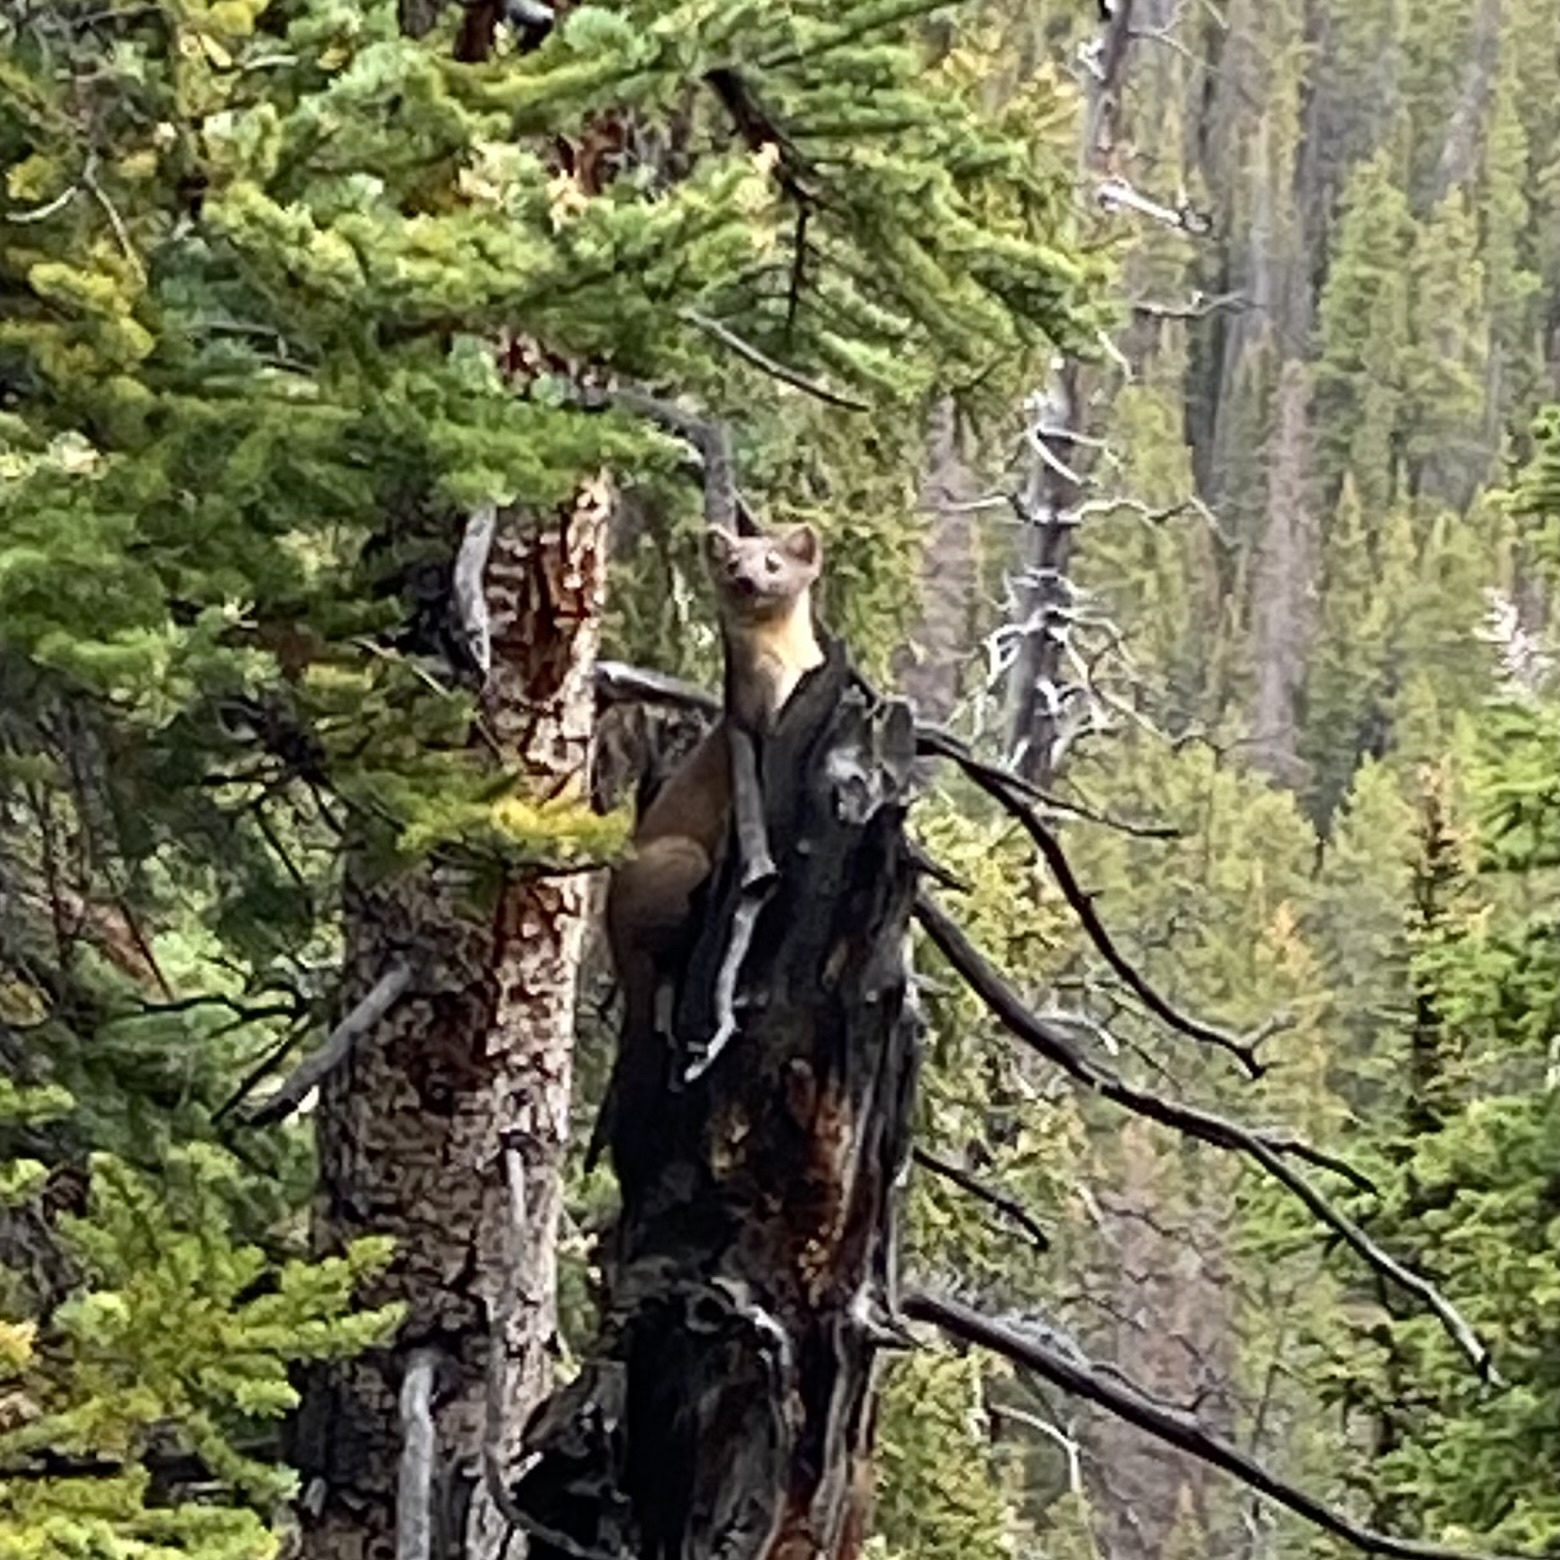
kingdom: Animalia
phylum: Chordata
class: Mammalia
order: Carnivora
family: Mustelidae
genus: Martes
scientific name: Martes caurina
